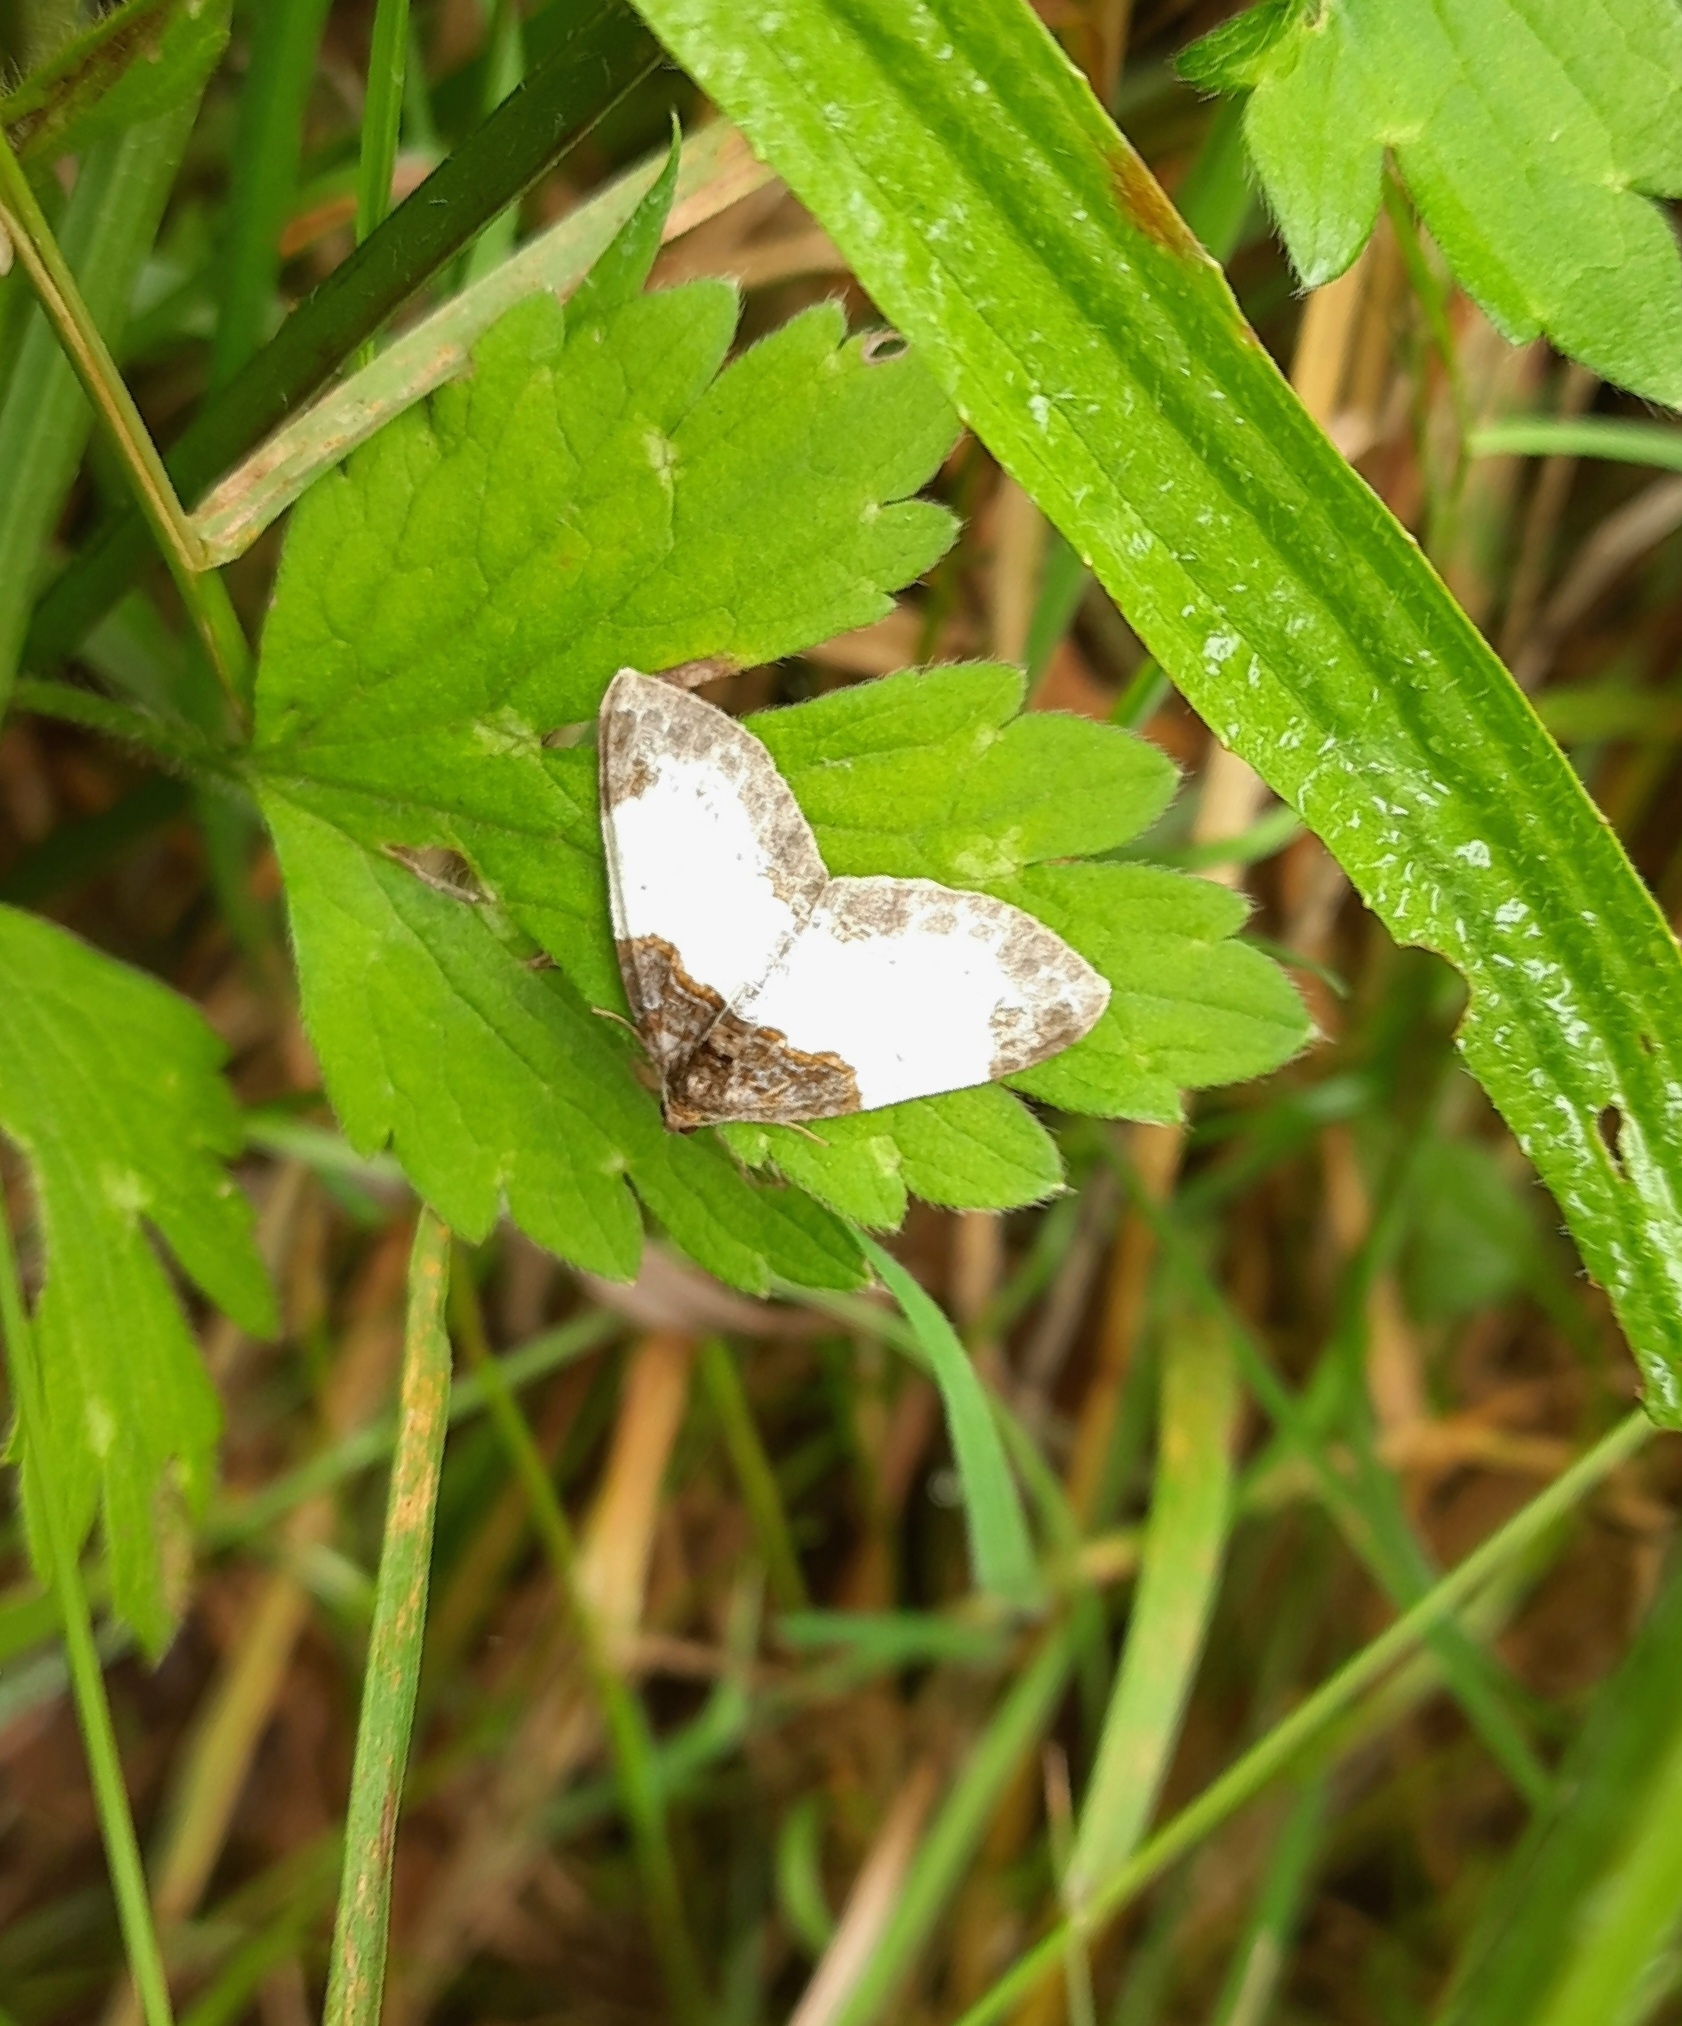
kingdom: Animalia
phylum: Arthropoda
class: Insecta
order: Lepidoptera
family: Geometridae
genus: Mesoleuca
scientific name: Mesoleuca albicillata
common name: Beautiful carpet
